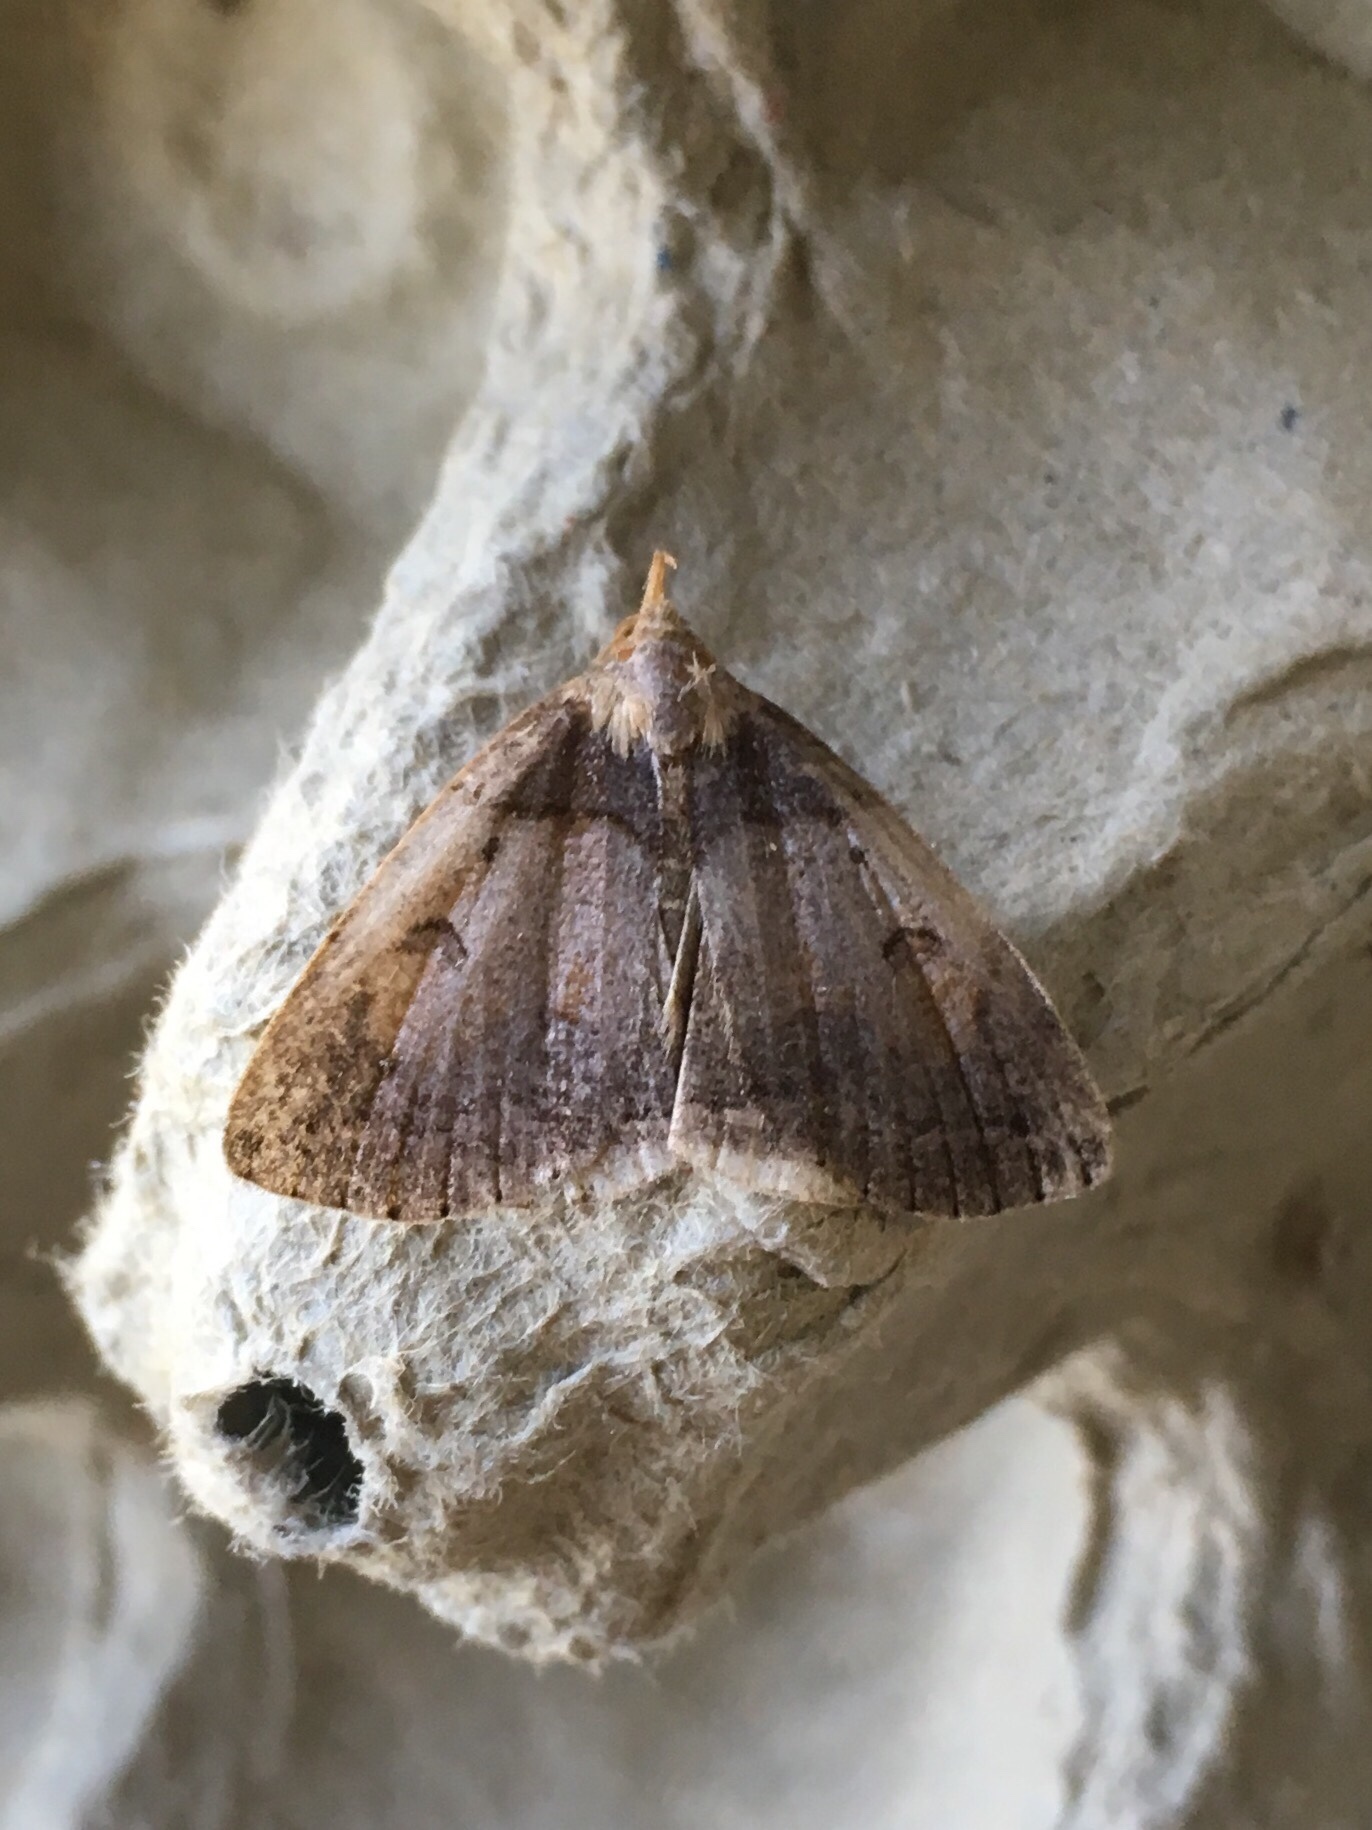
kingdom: Animalia
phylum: Arthropoda
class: Insecta
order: Lepidoptera
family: Erebidae
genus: Zanclognatha
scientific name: Zanclognatha laevigata
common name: Variable fan-foot
